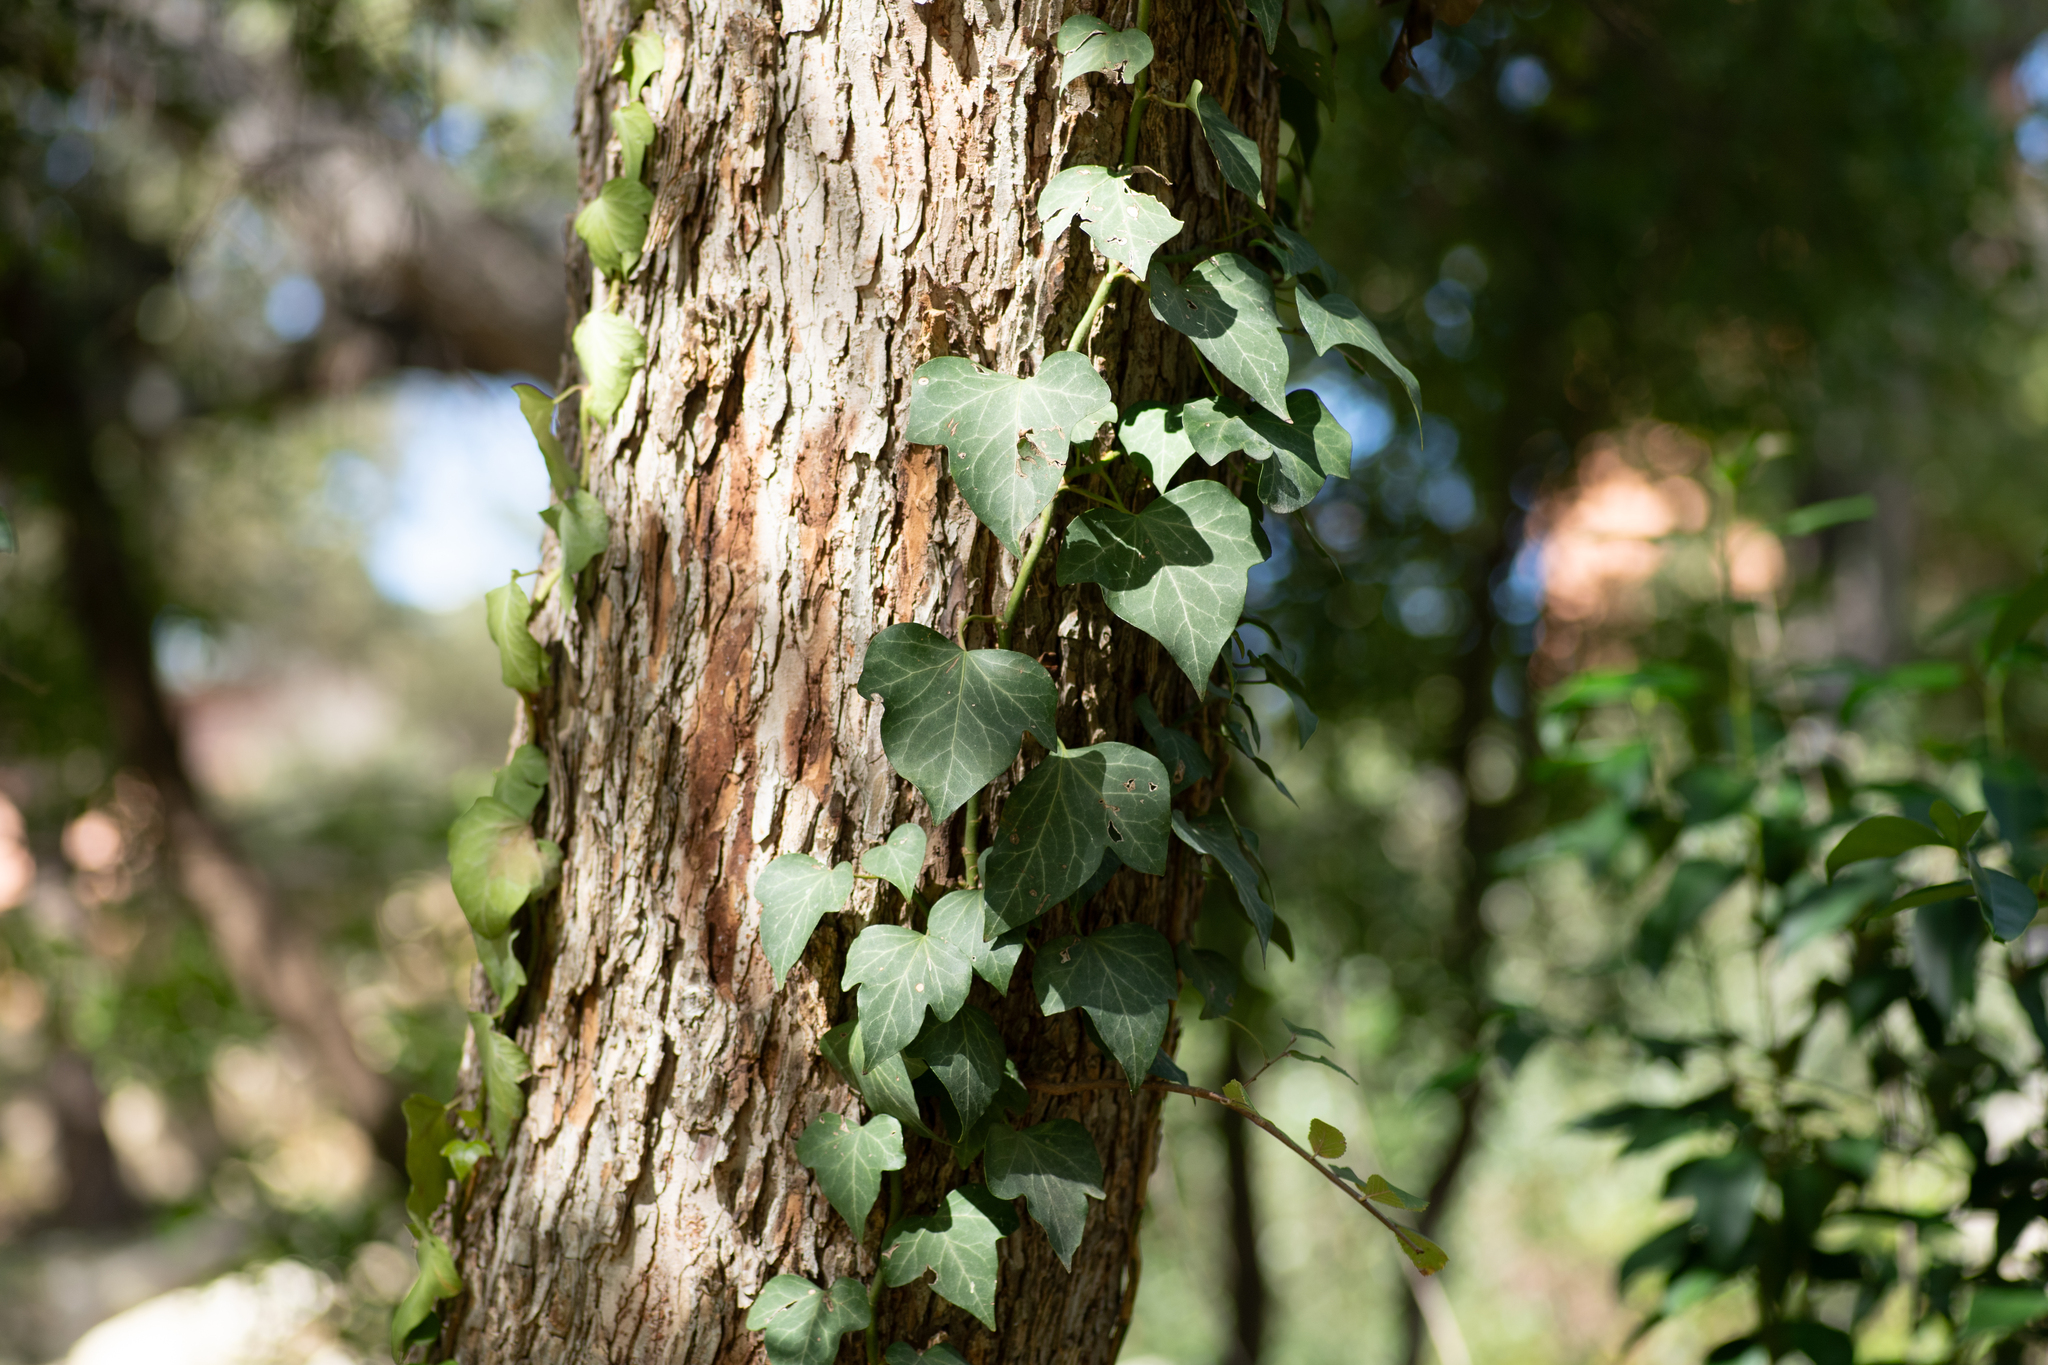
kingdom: Plantae
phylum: Tracheophyta
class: Magnoliopsida
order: Apiales
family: Araliaceae
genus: Hedera
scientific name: Hedera helix
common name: Ivy
